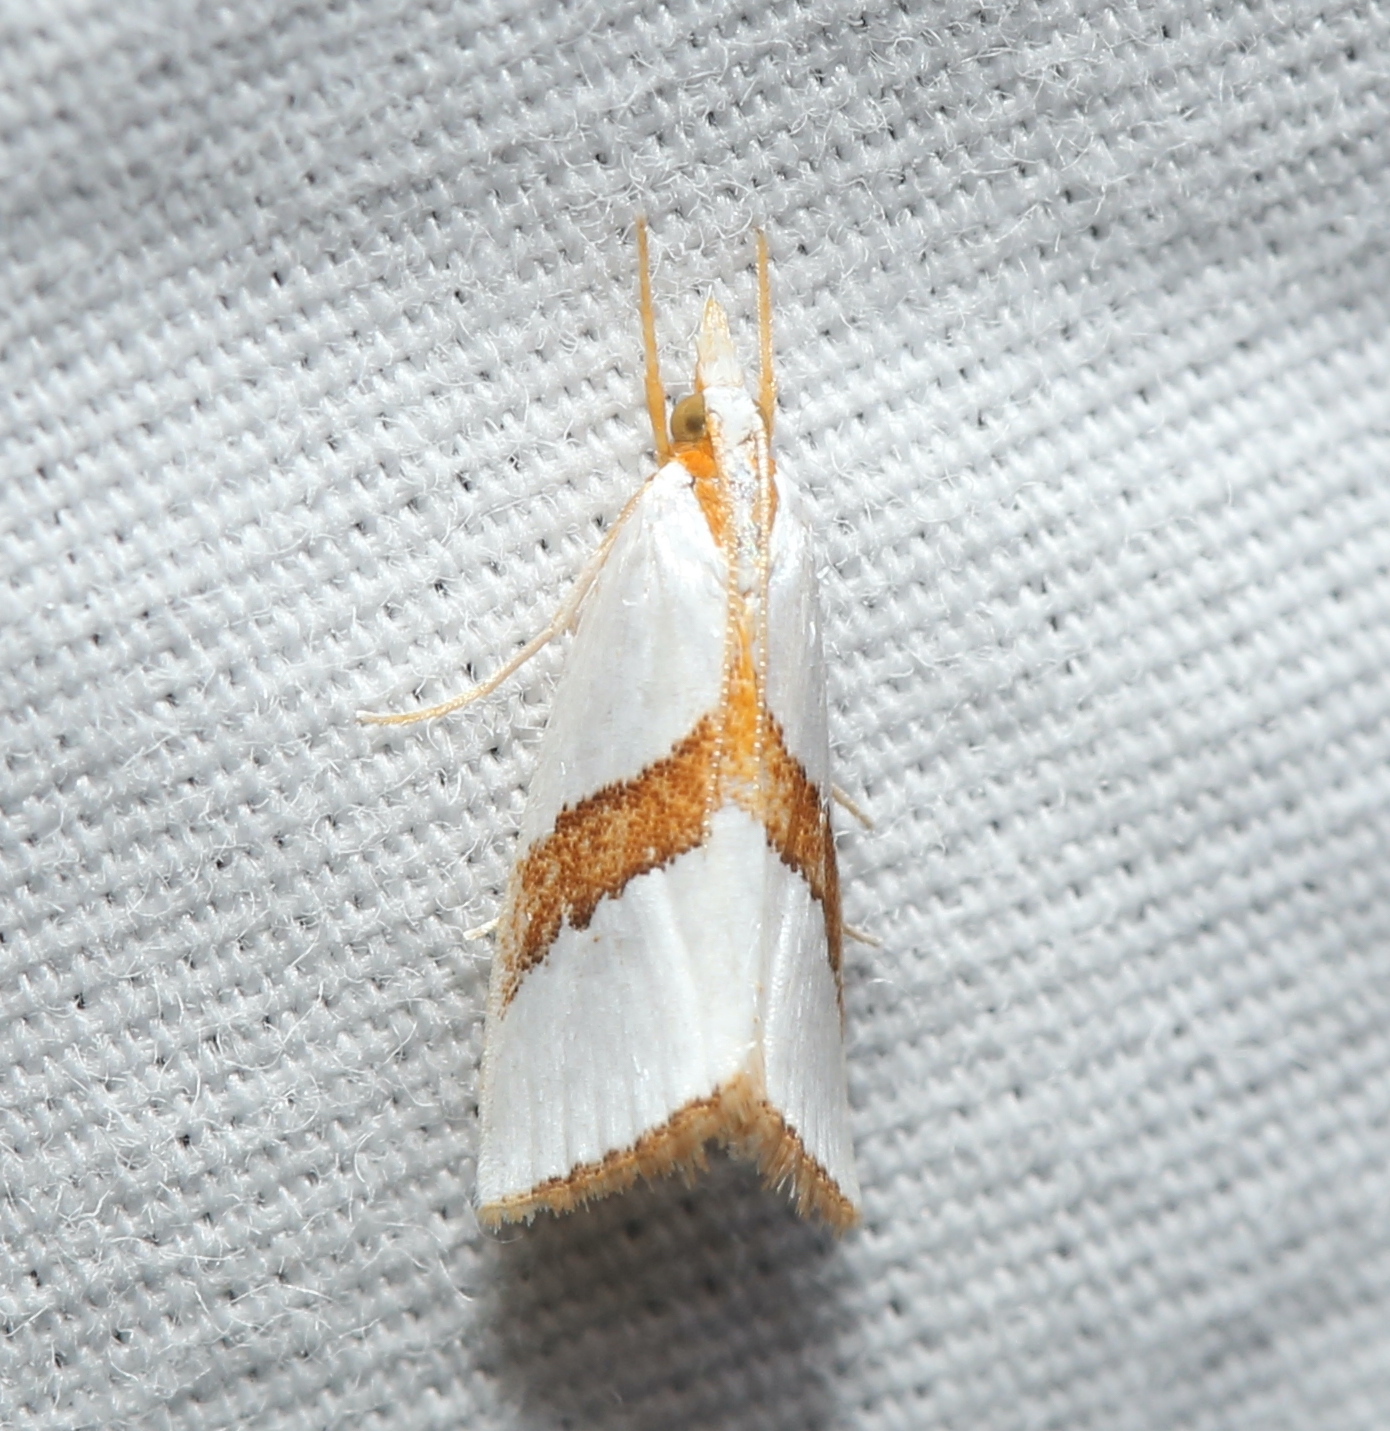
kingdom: Animalia
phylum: Arthropoda
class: Insecta
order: Lepidoptera
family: Crambidae
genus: Vaxi
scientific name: Vaxi critica
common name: Straight-lined vaxi moth
